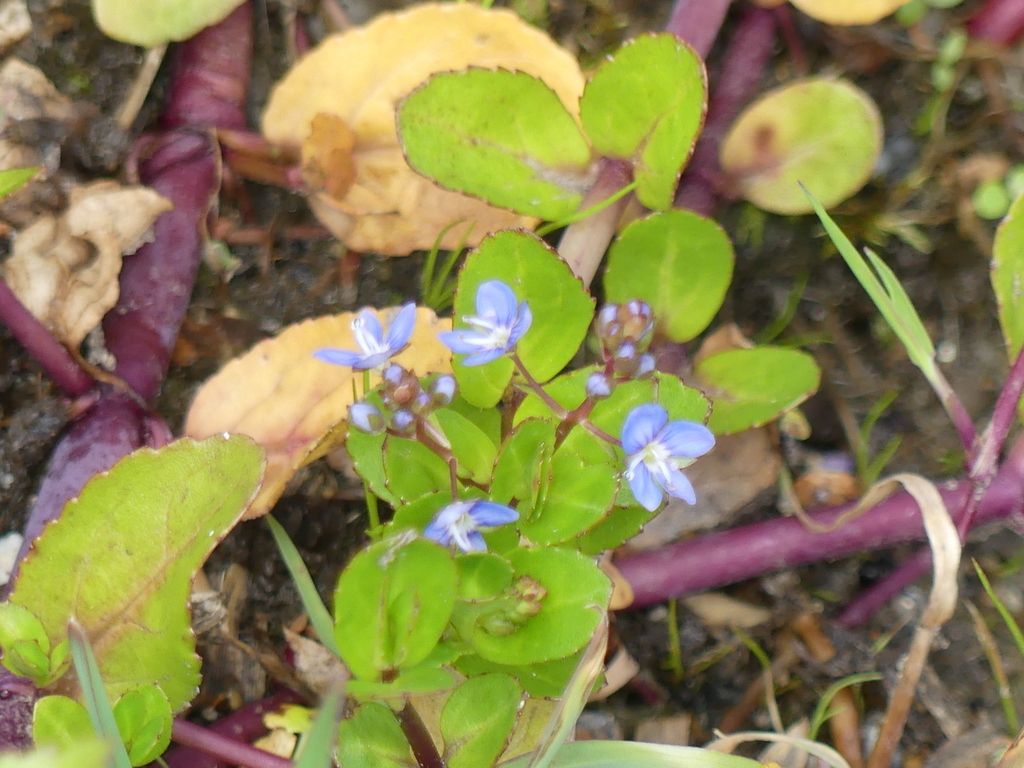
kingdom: Plantae
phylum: Tracheophyta
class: Magnoliopsida
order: Lamiales
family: Plantaginaceae
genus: Veronica
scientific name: Veronica beccabunga
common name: Brooklime
